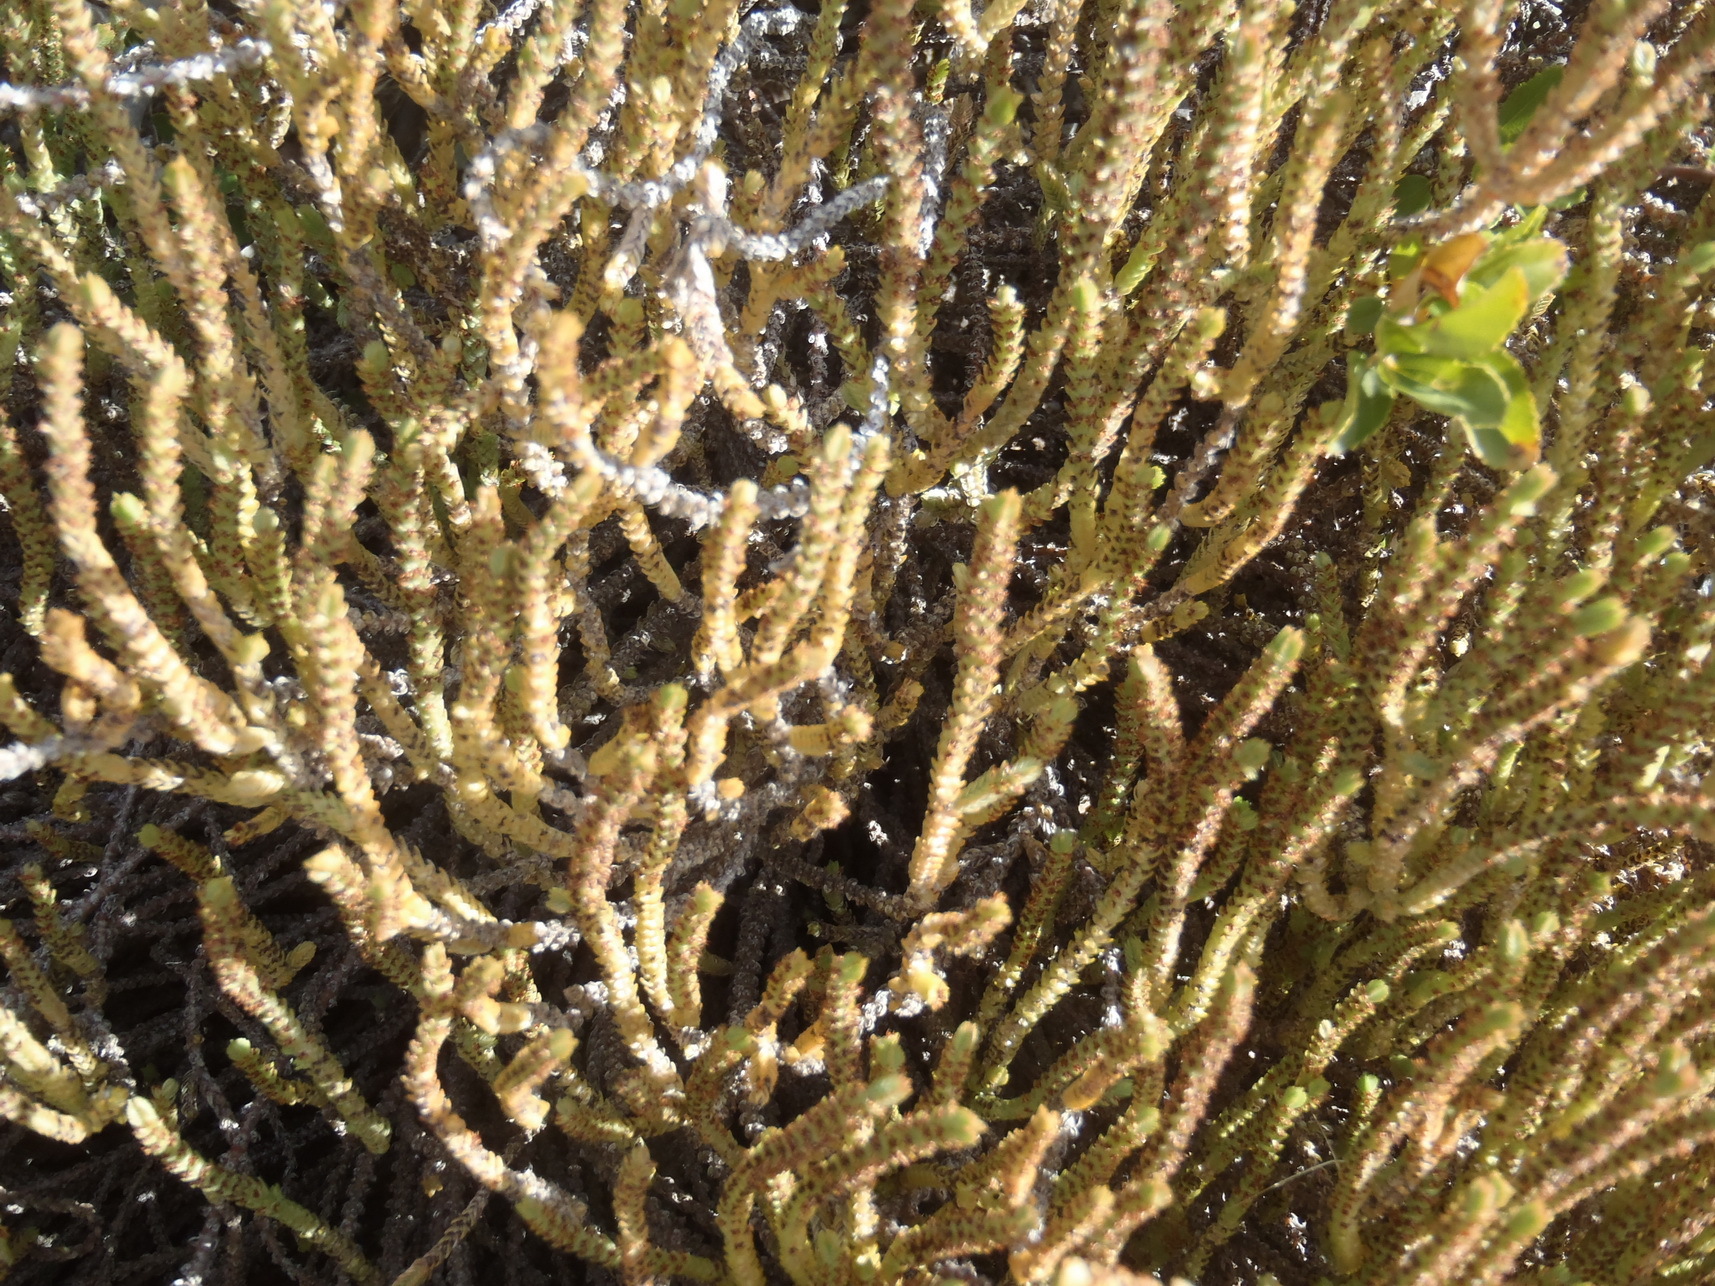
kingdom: Plantae
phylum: Tracheophyta
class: Magnoliopsida
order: Saxifragales
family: Crassulaceae
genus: Crassula
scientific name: Crassula muscosa
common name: Toy-cypress
